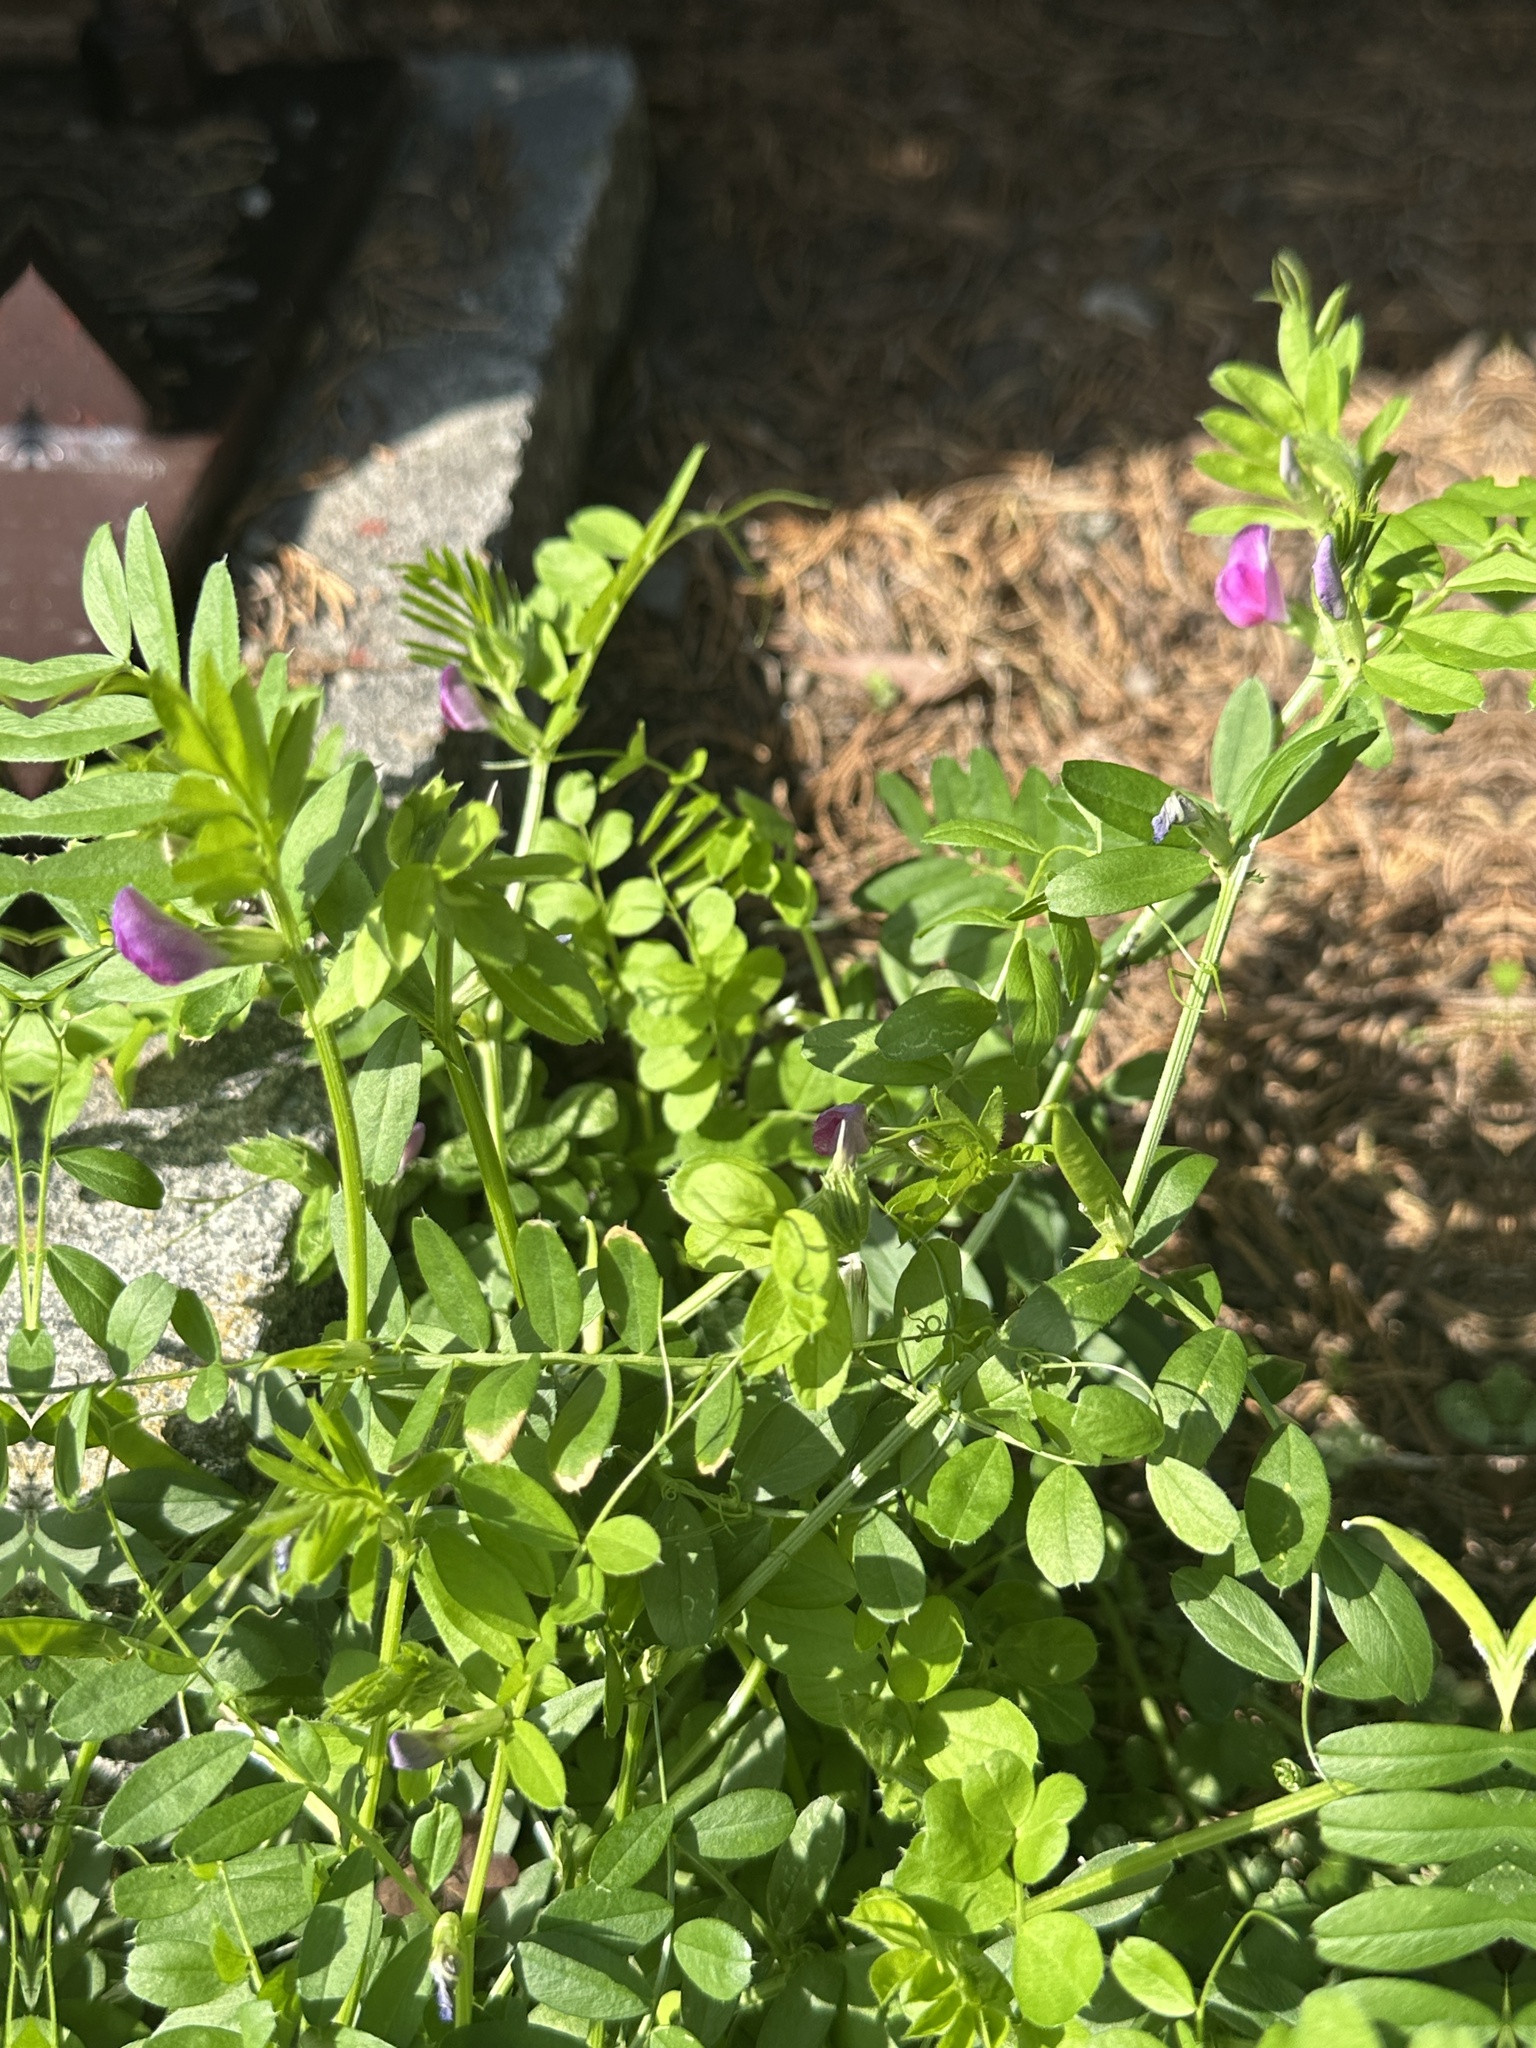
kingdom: Plantae
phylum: Tracheophyta
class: Magnoliopsida
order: Fabales
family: Fabaceae
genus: Vicia
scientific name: Vicia sativa
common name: Garden vetch
